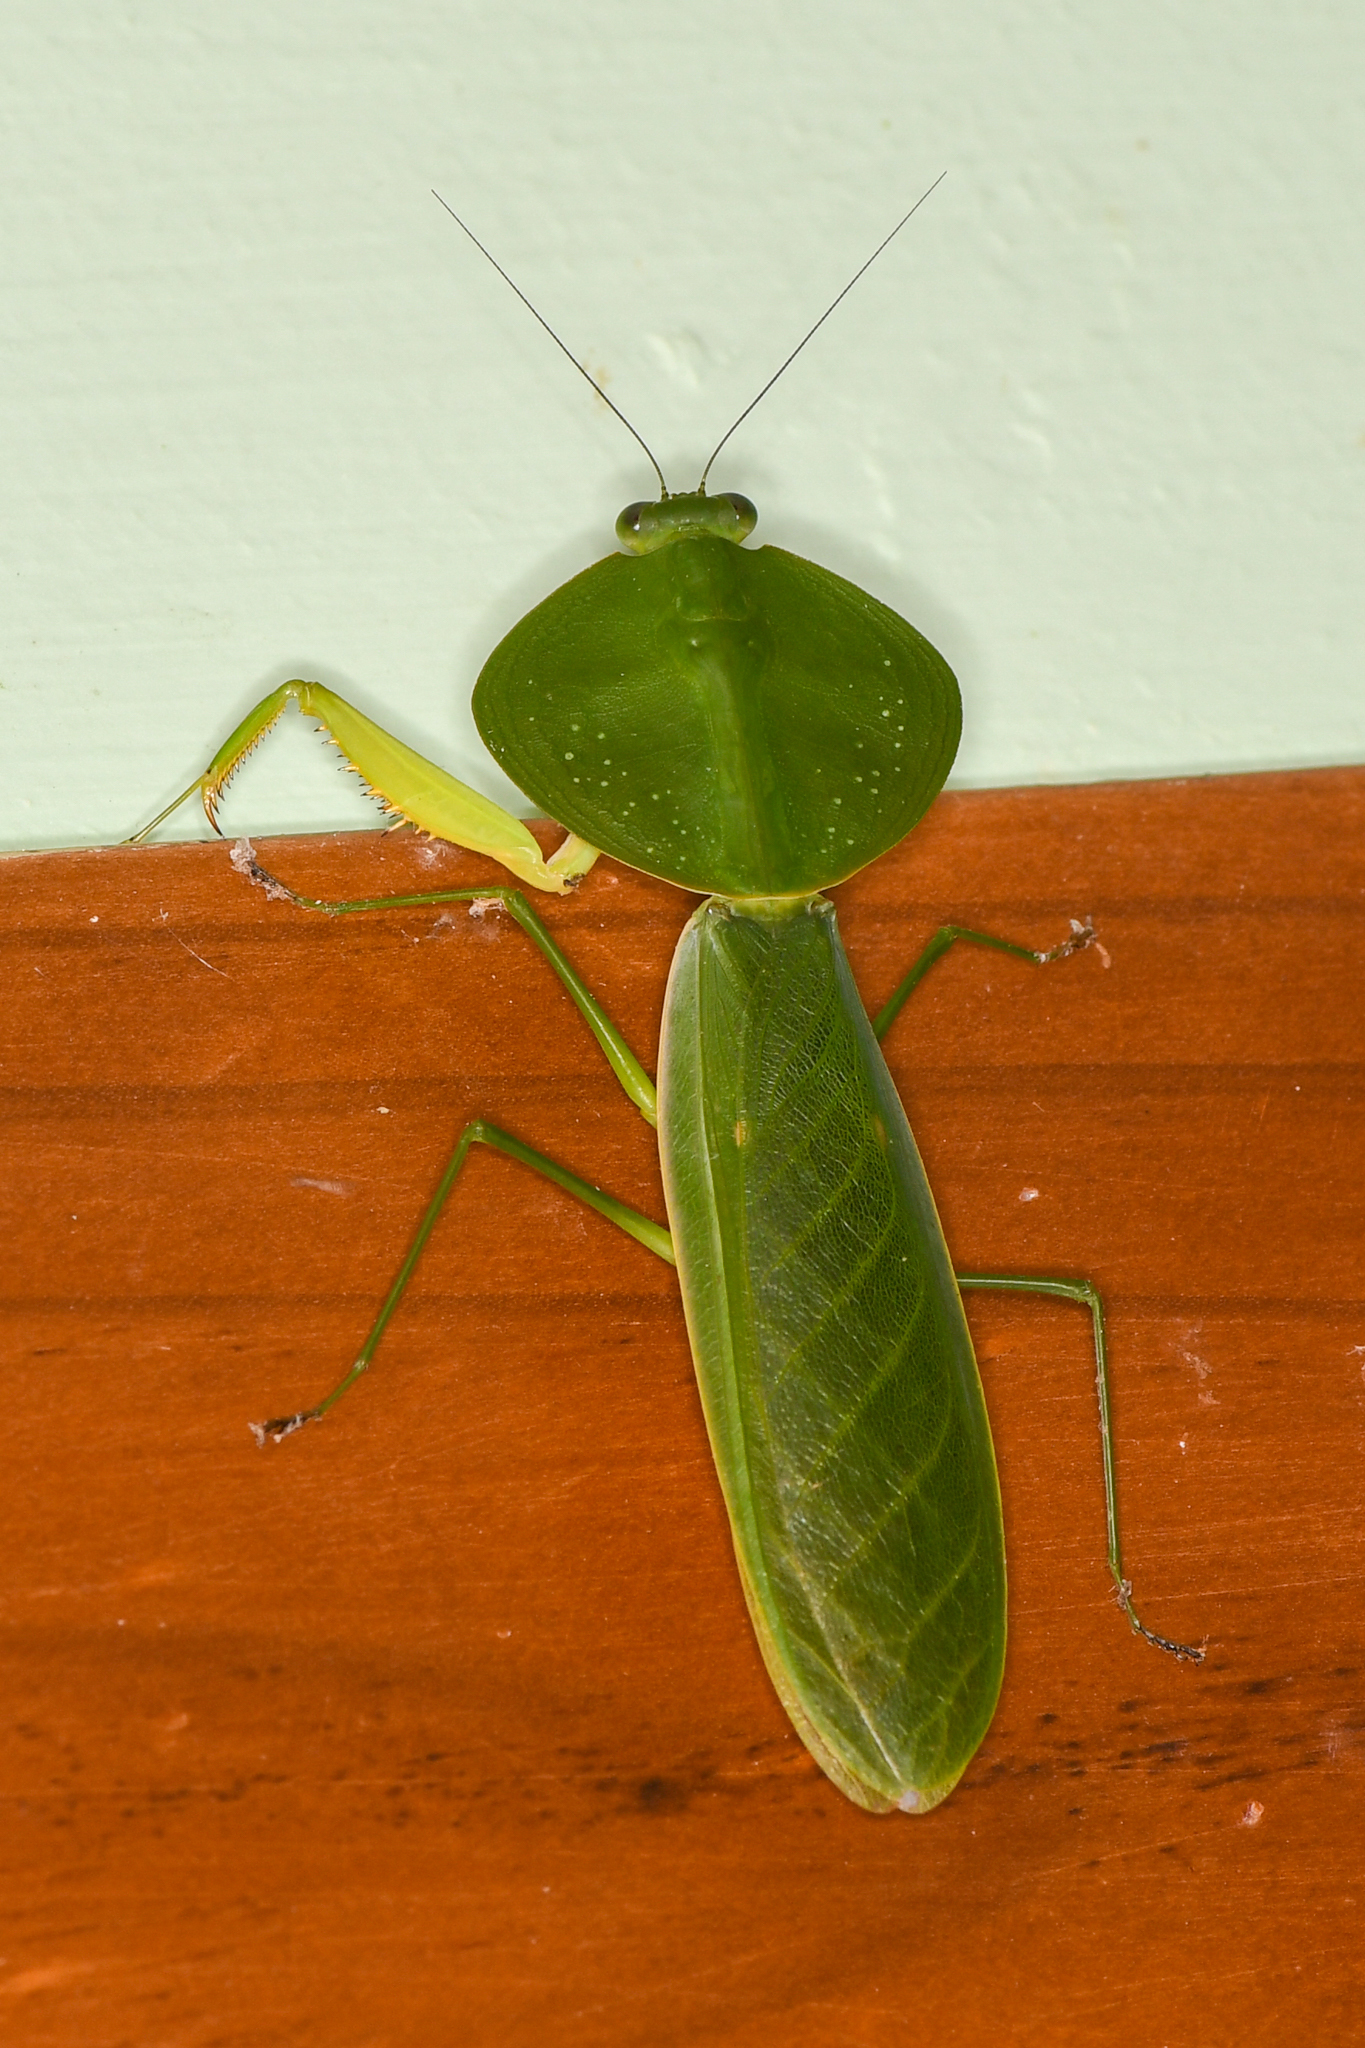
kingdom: Animalia
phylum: Arthropoda
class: Insecta
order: Mantodea
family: Mantidae
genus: Choeradodis
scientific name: Choeradodis rhombicollis
